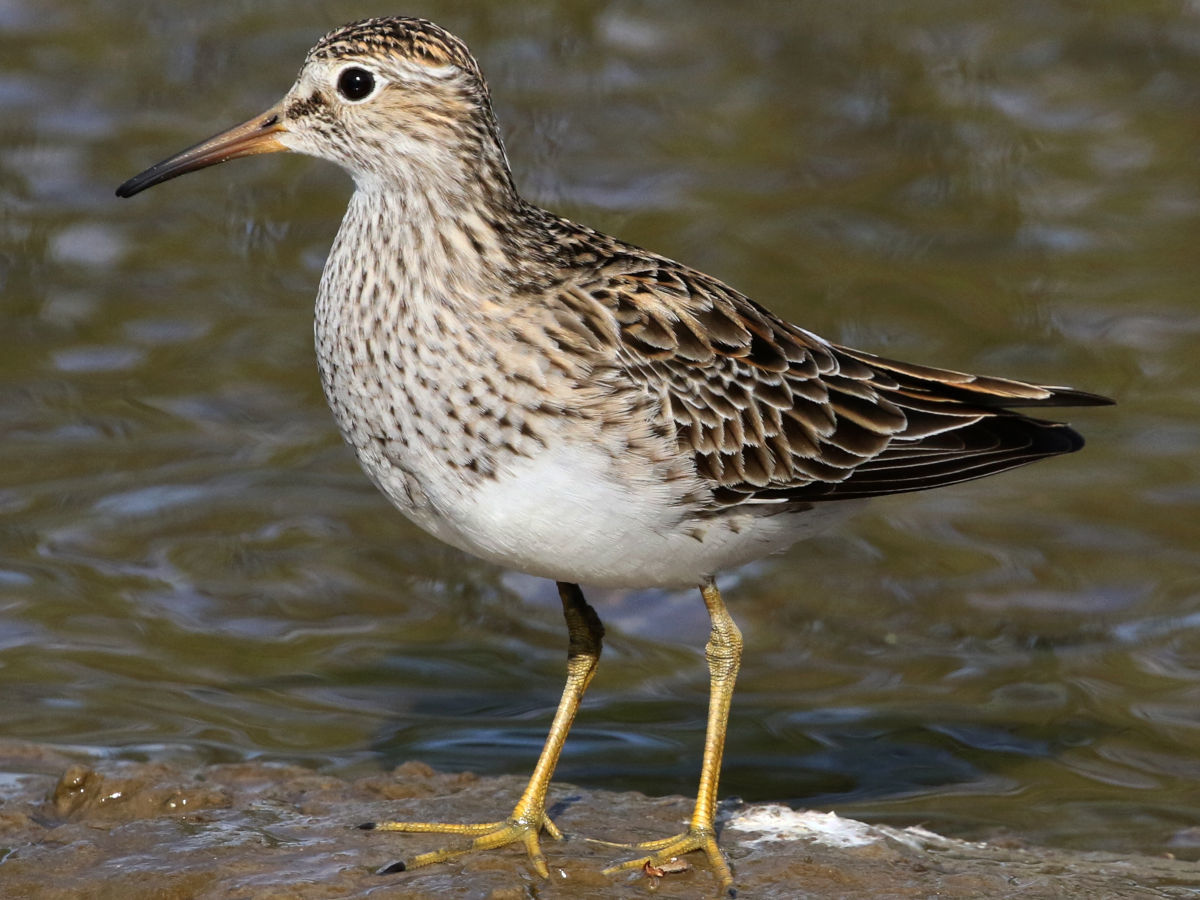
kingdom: Animalia
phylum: Chordata
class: Aves
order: Charadriiformes
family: Scolopacidae
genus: Calidris
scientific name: Calidris melanotos
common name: Pectoral sandpiper
